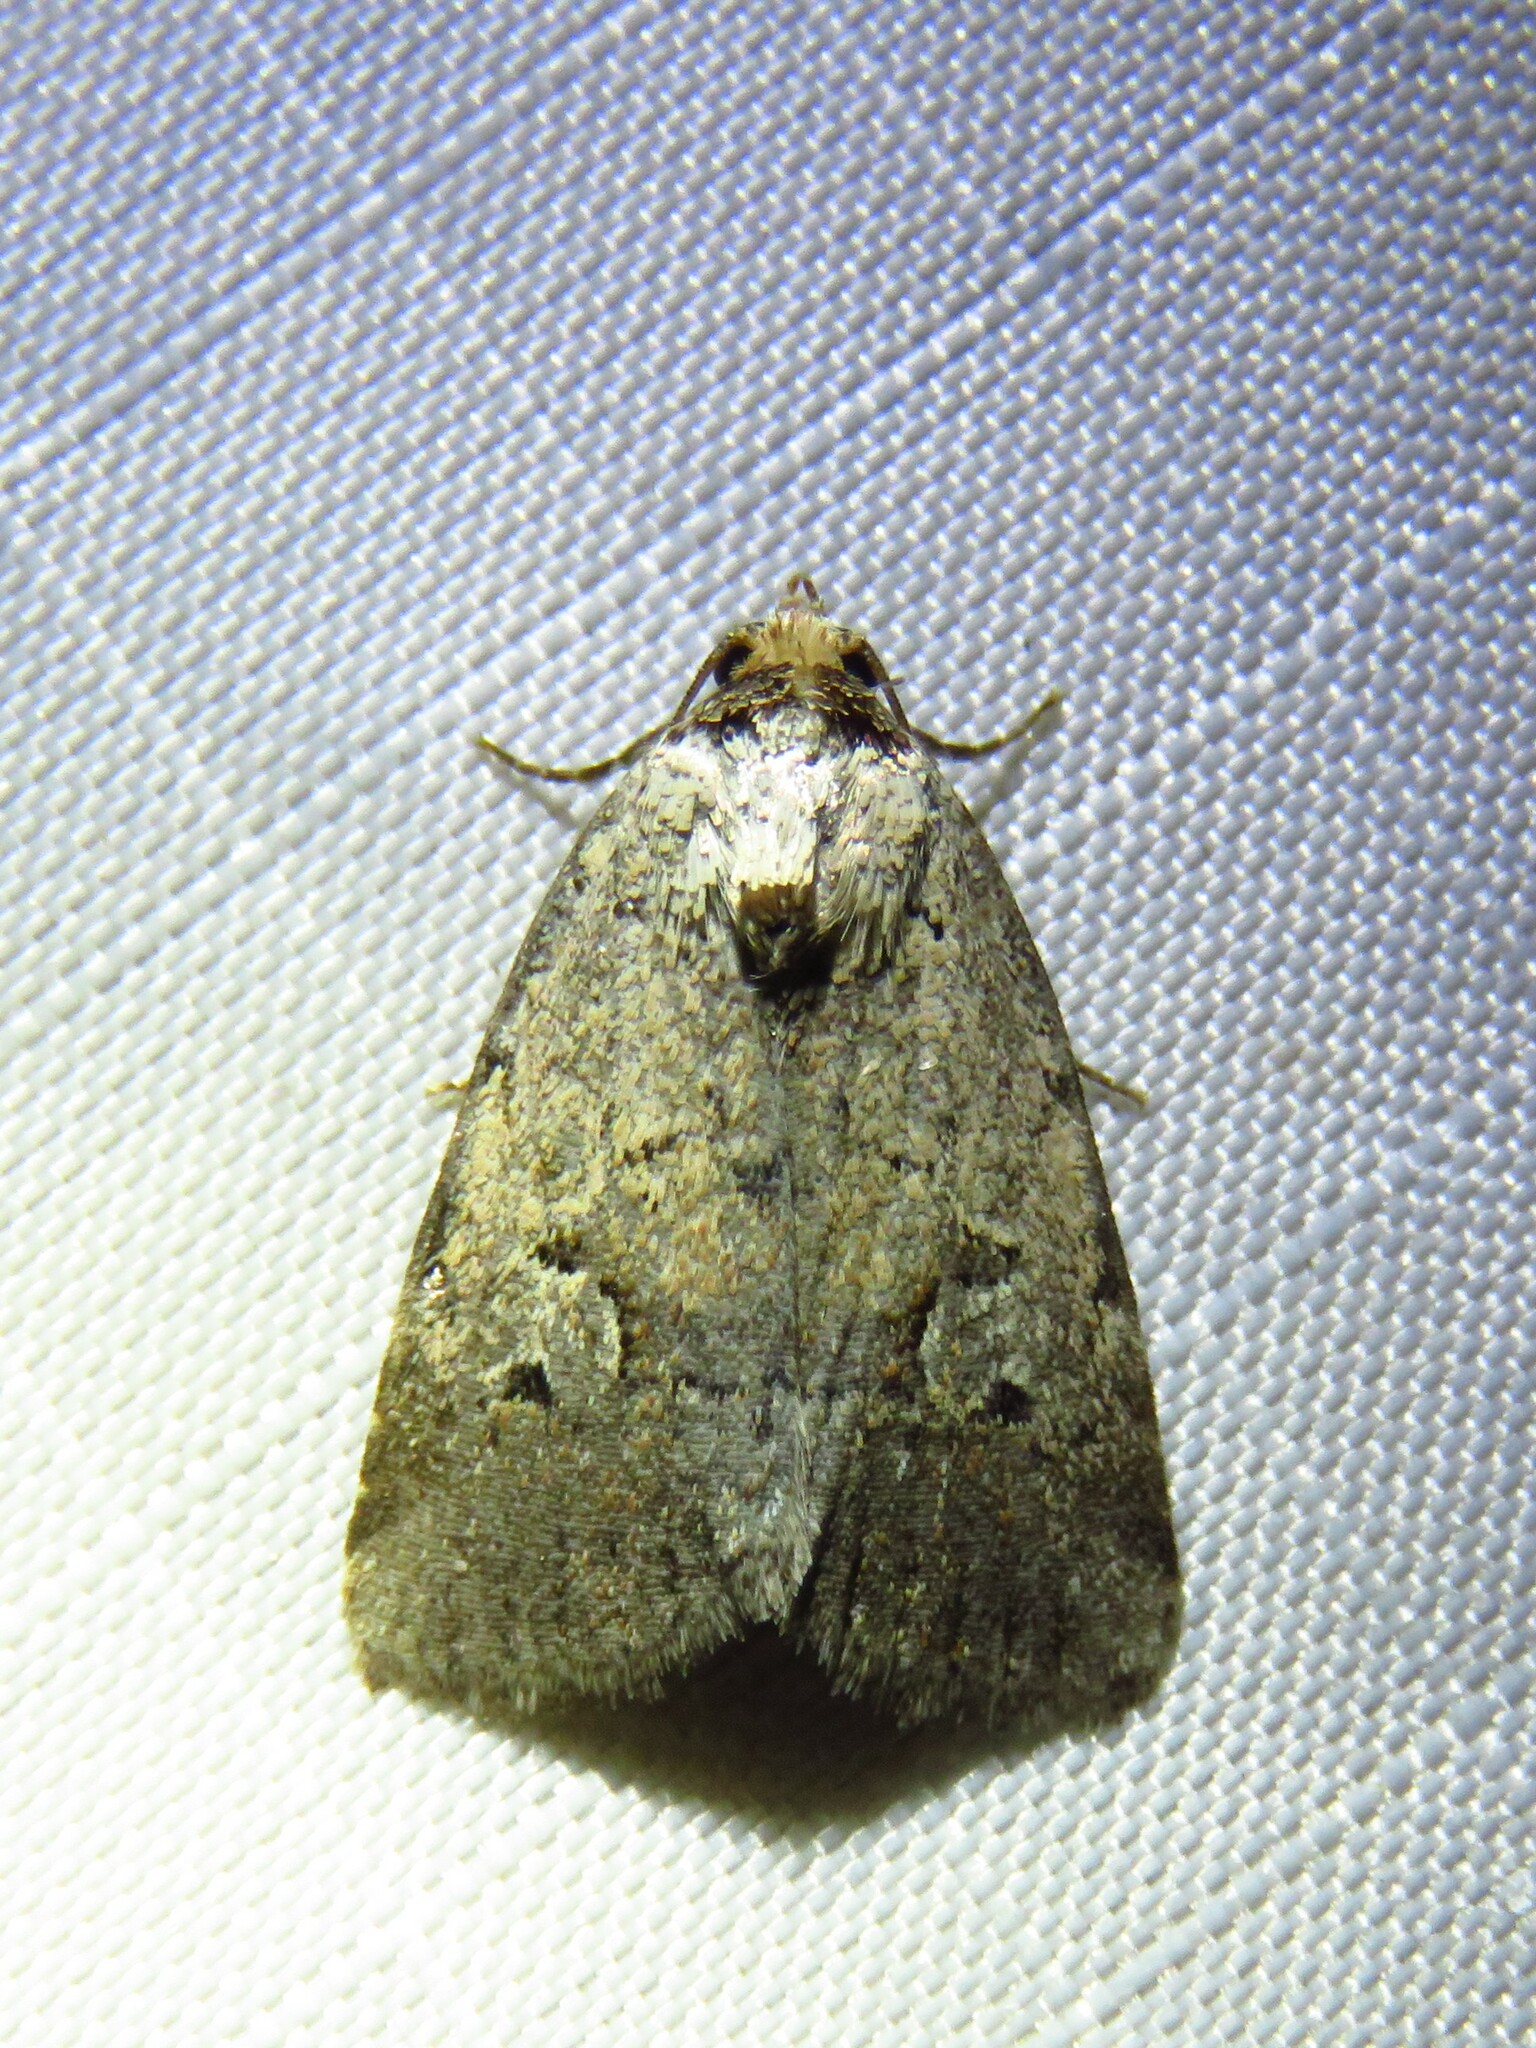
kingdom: Animalia
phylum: Arthropoda
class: Insecta
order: Lepidoptera
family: Noctuidae
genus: Elaphria
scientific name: Elaphria festivoides
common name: Festive midget
